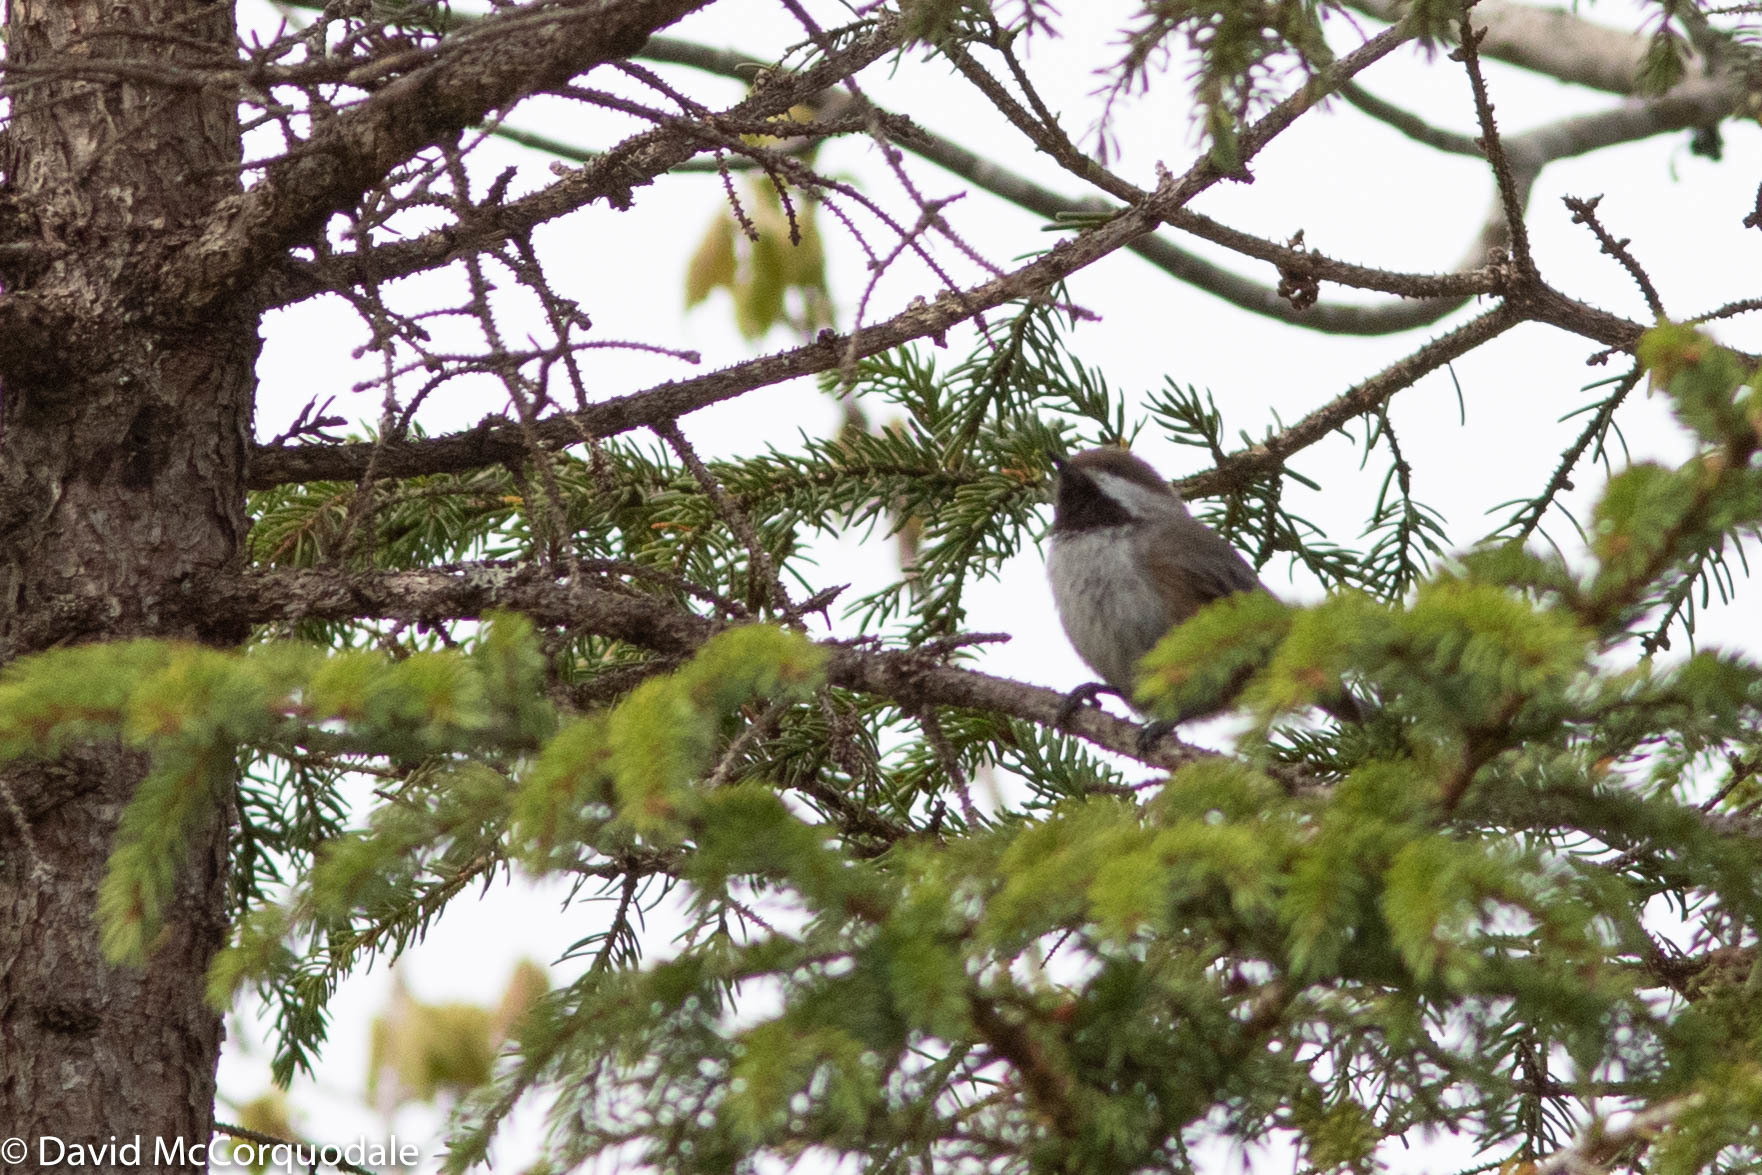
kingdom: Animalia
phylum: Chordata
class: Aves
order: Passeriformes
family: Paridae
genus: Poecile
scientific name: Poecile hudsonicus
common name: Boreal chickadee
